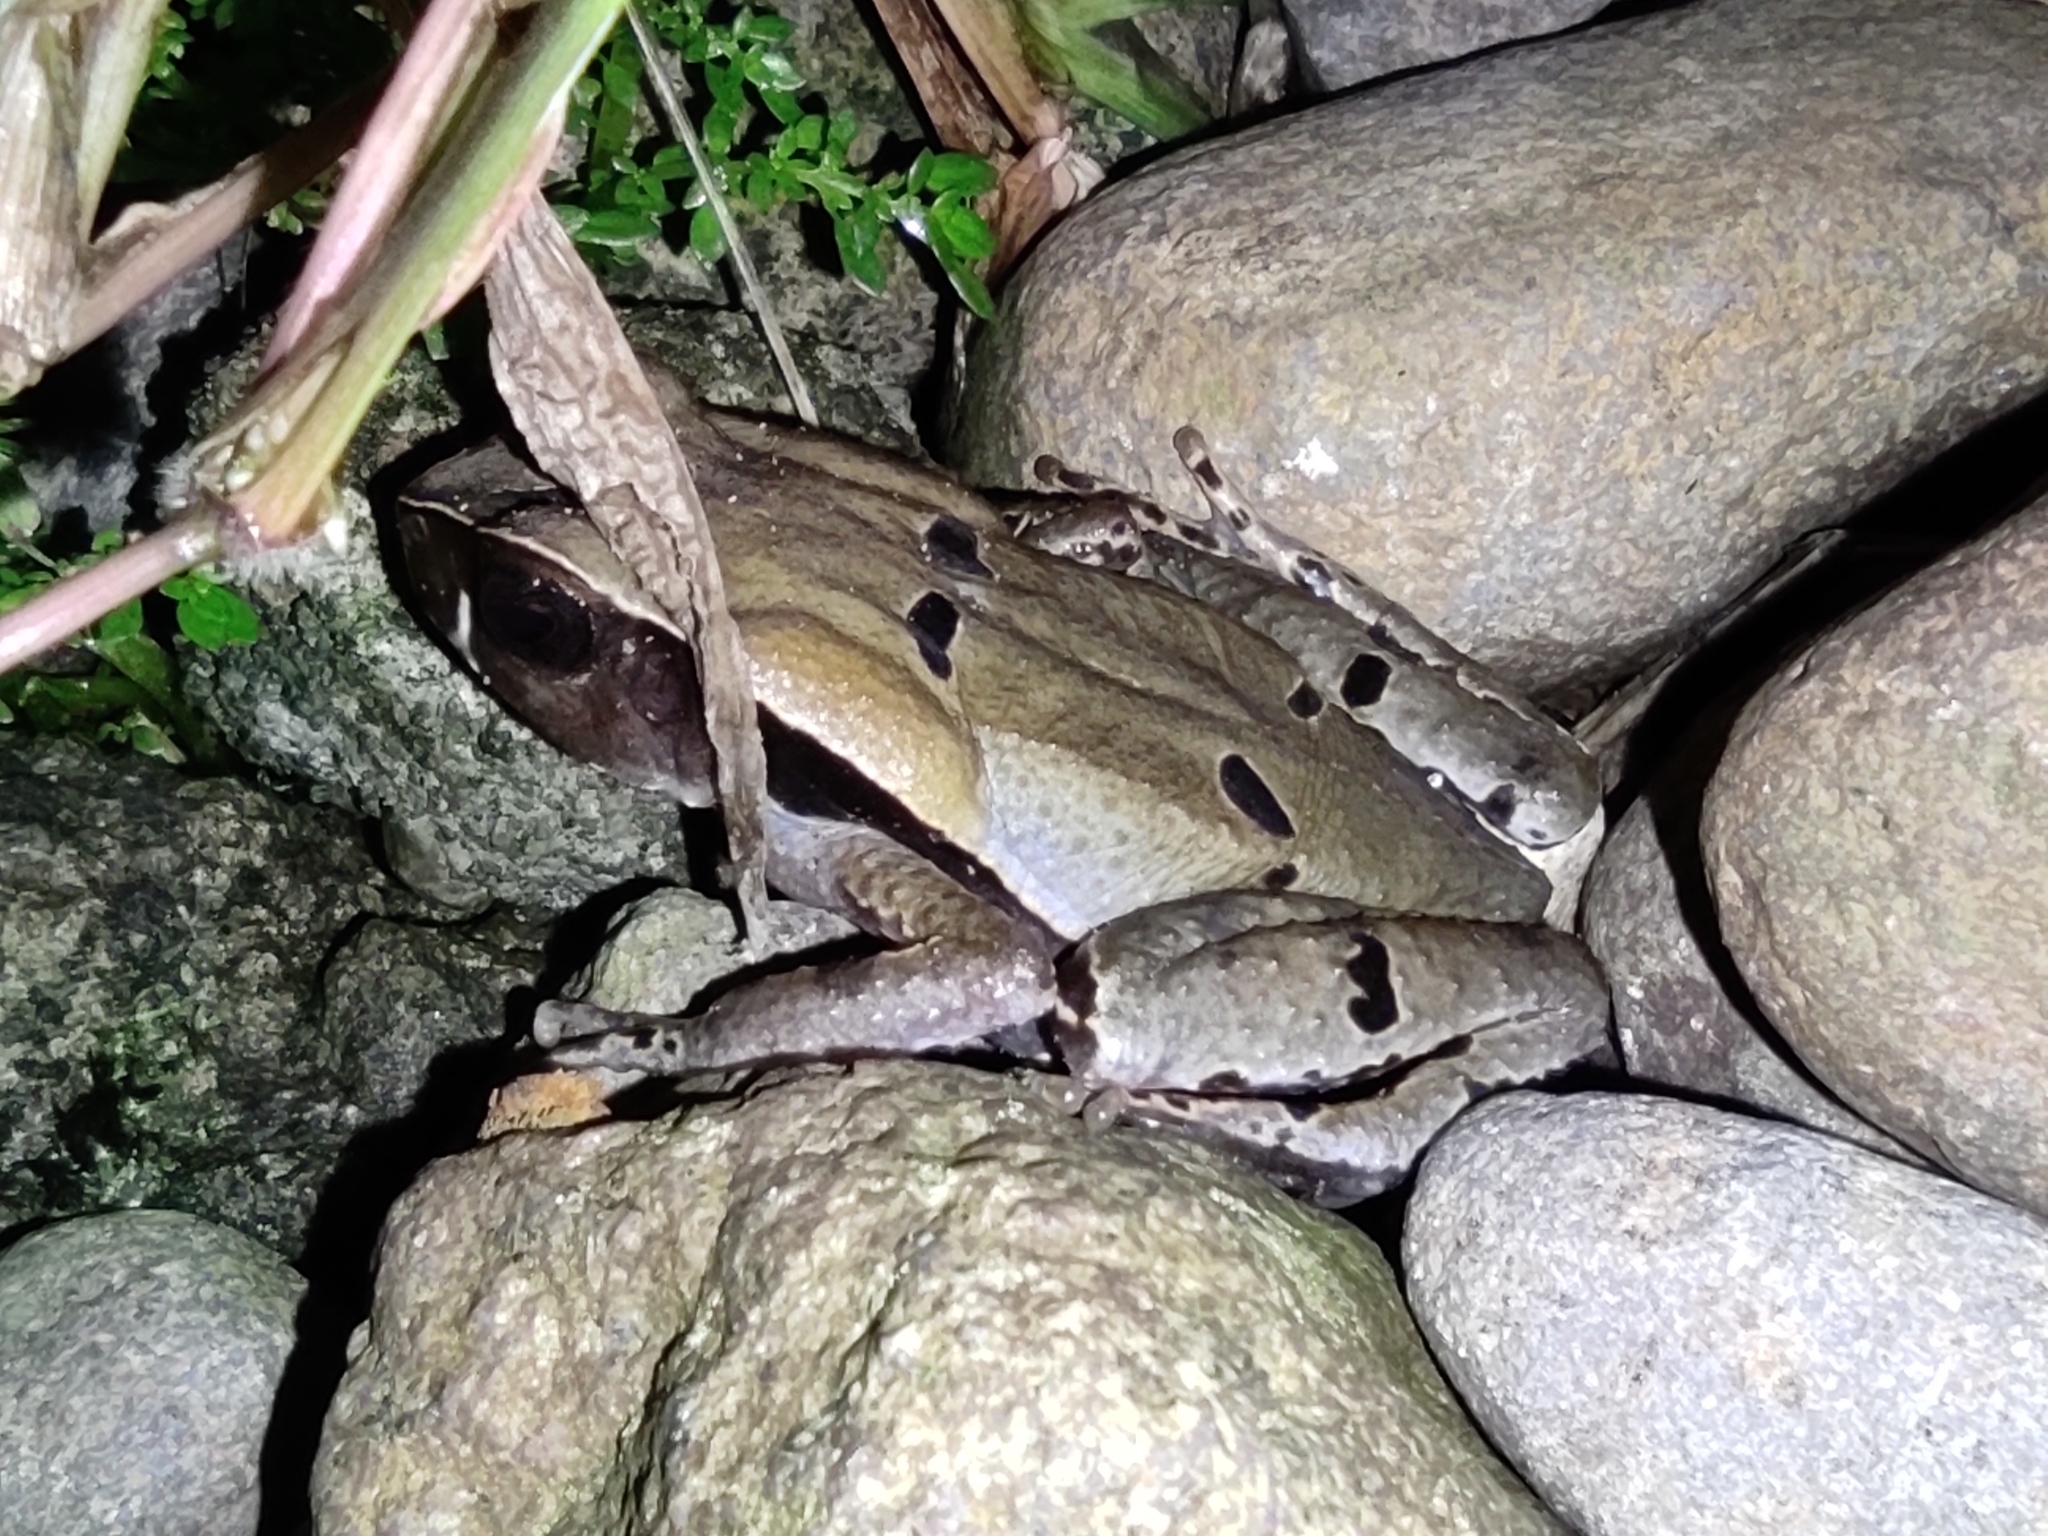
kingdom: Animalia
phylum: Chordata
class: Amphibia
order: Anura
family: Bufonidae
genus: Rhaebo
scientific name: Rhaebo haematiticus
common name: Truando toad
